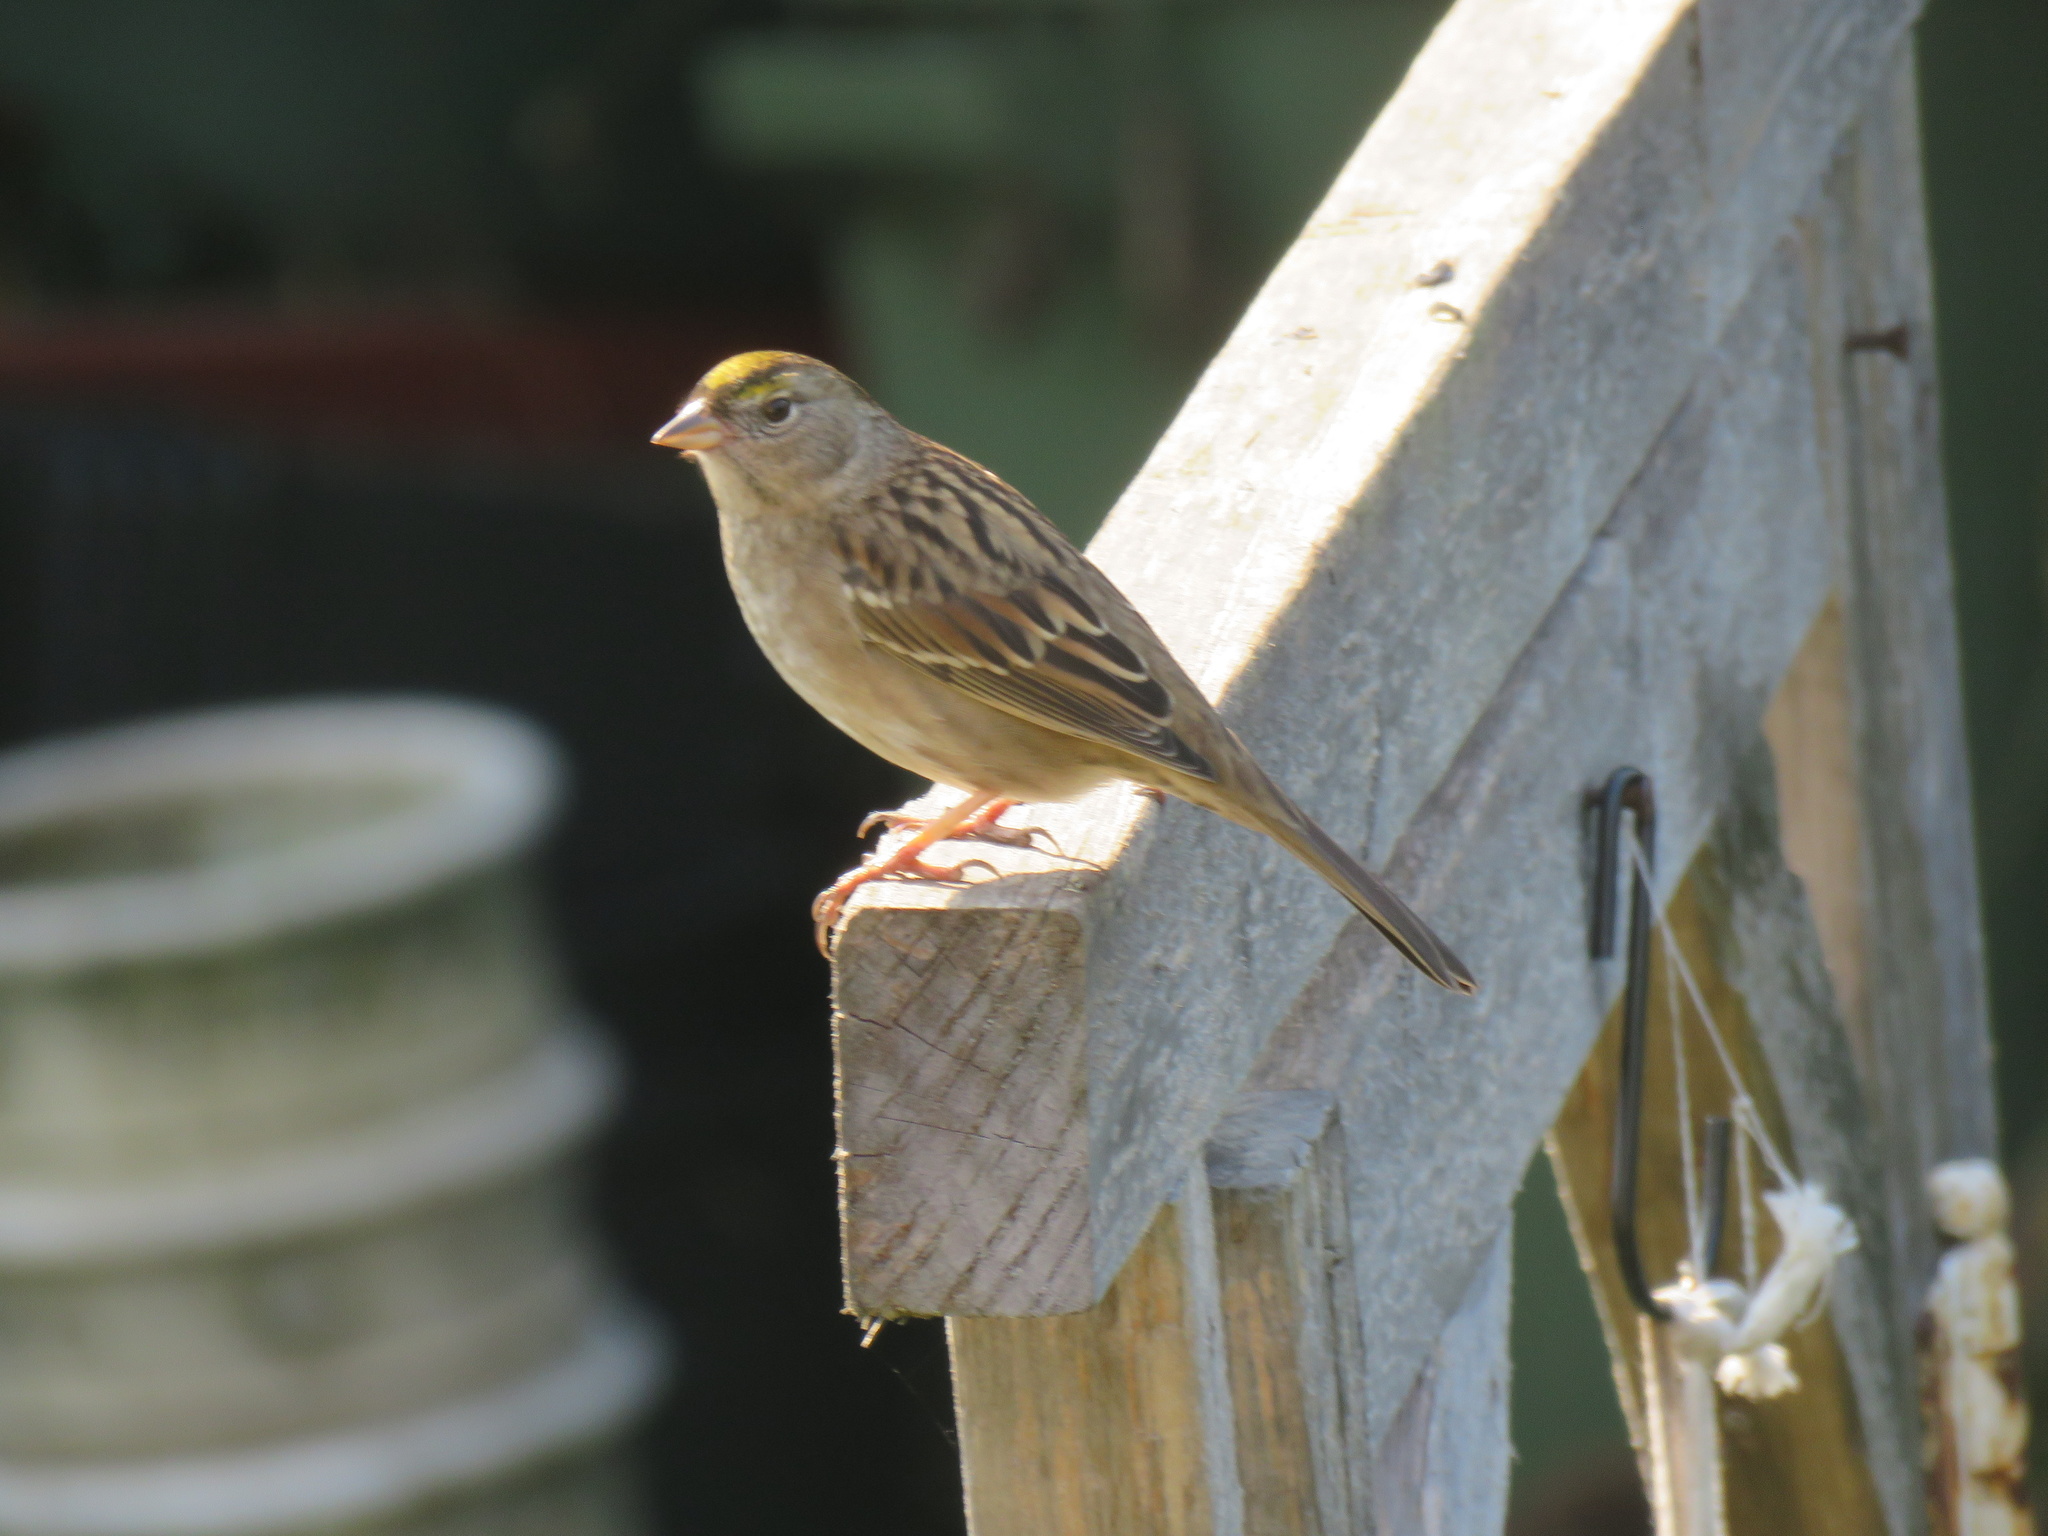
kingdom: Animalia
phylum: Chordata
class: Aves
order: Passeriformes
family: Passerellidae
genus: Zonotrichia
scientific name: Zonotrichia atricapilla
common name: Golden-crowned sparrow
